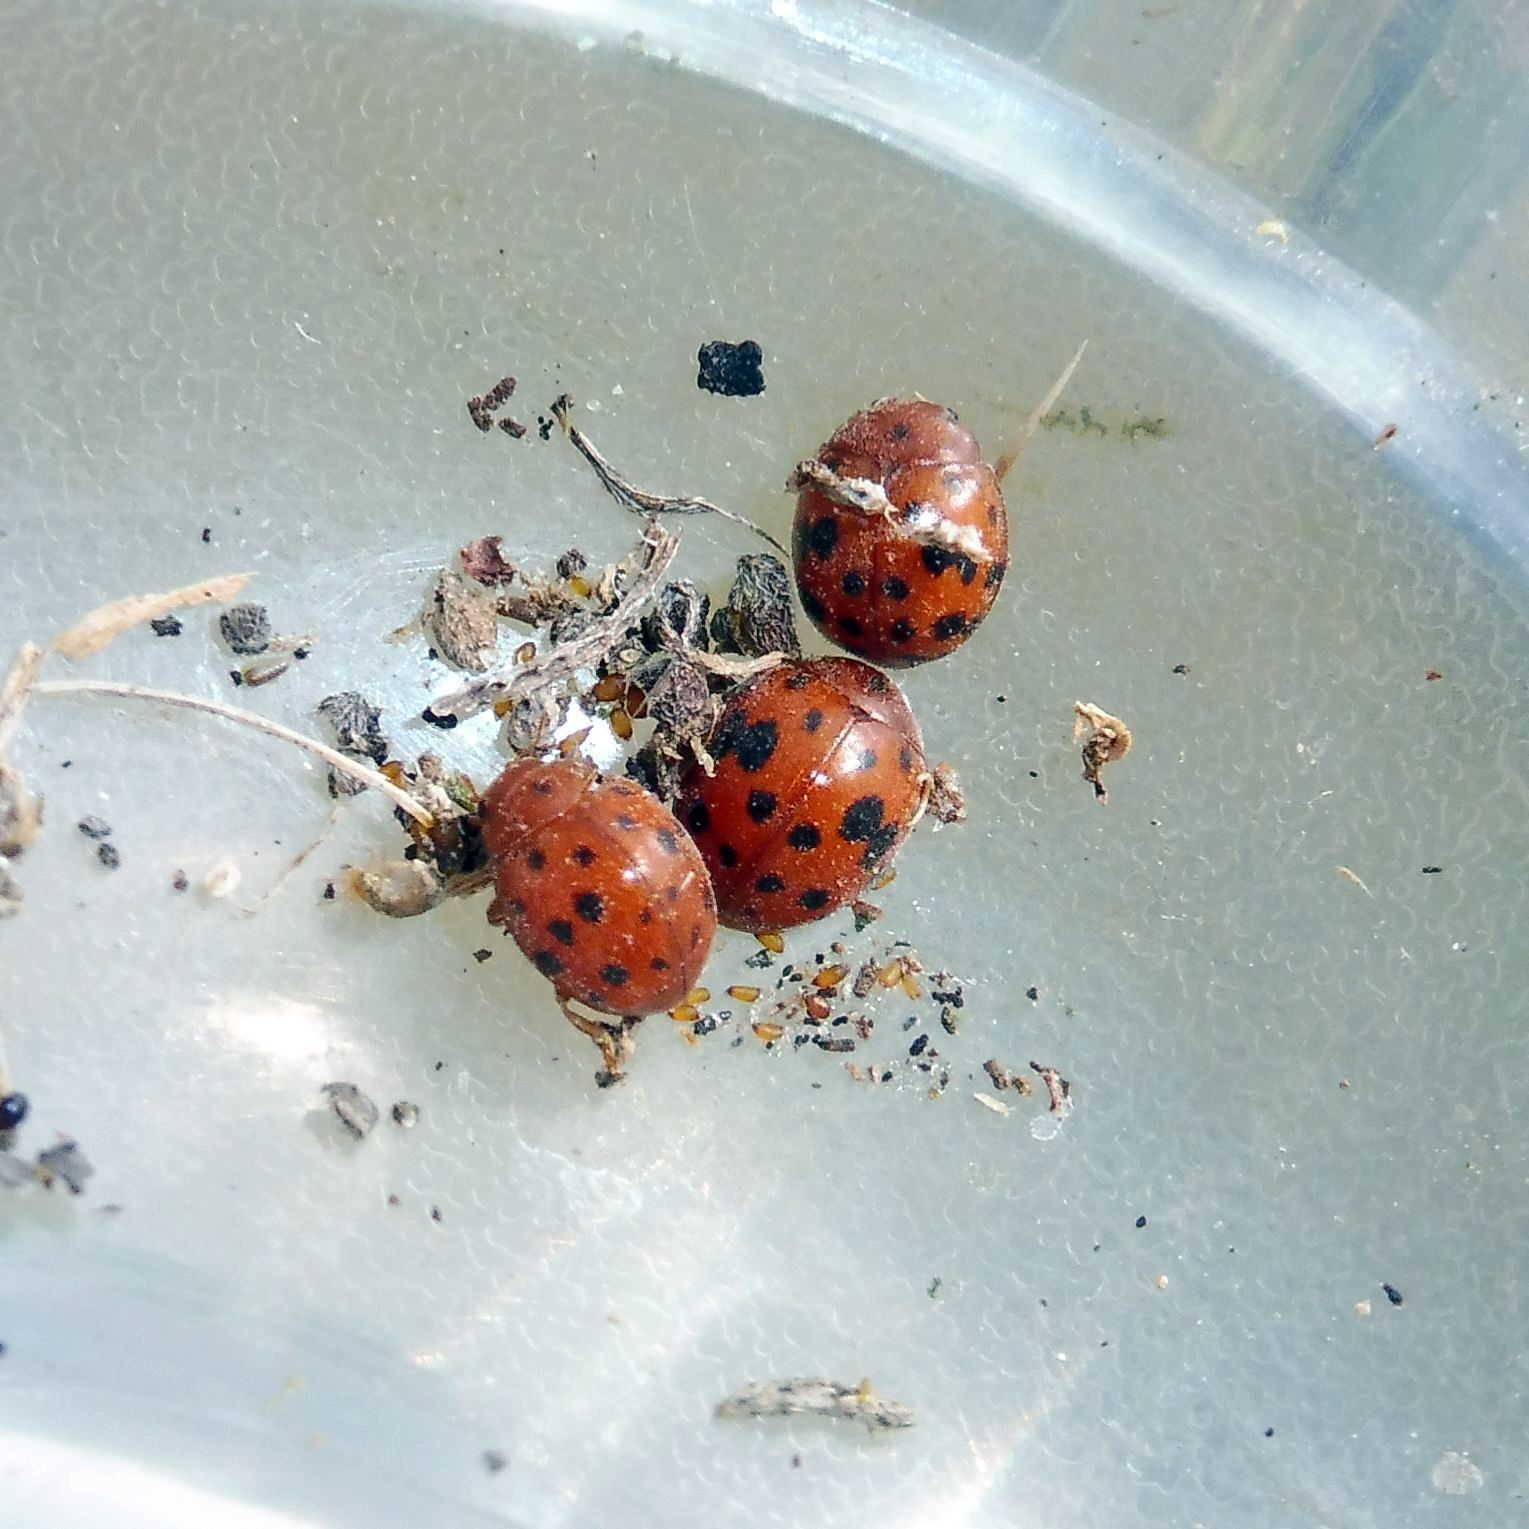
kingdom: Animalia
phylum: Arthropoda
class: Insecta
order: Coleoptera
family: Coccinellidae
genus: Subcoccinella
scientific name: Subcoccinella vigintiquatuorpunctata
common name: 24-spot ladybird
